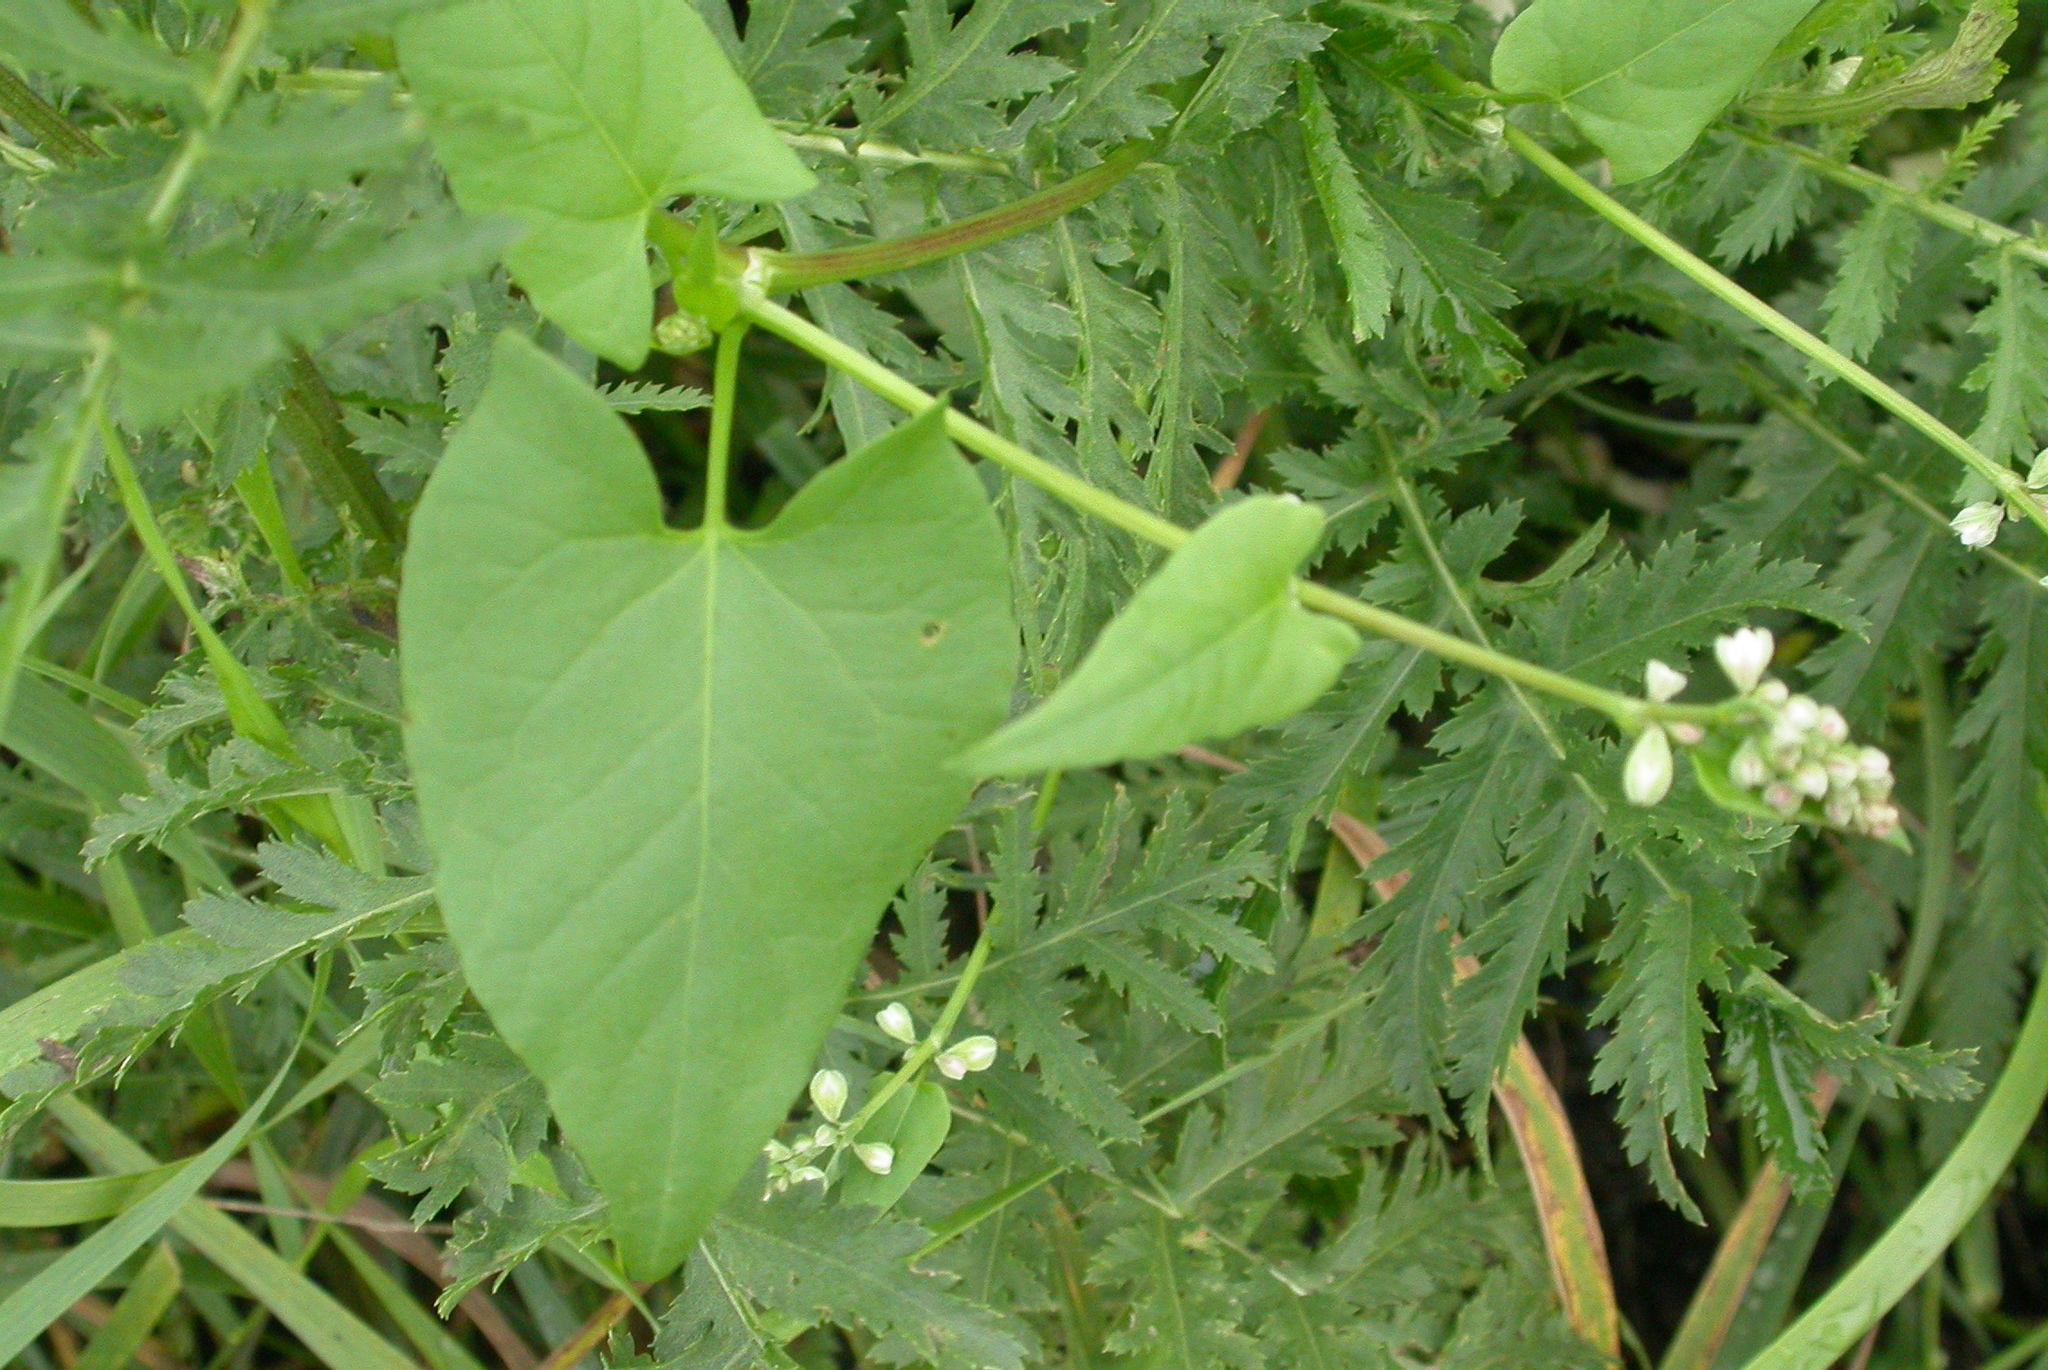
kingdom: Plantae
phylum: Tracheophyta
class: Magnoliopsida
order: Caryophyllales
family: Polygonaceae
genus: Fallopia
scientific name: Fallopia convolvulus
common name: Black bindweed
